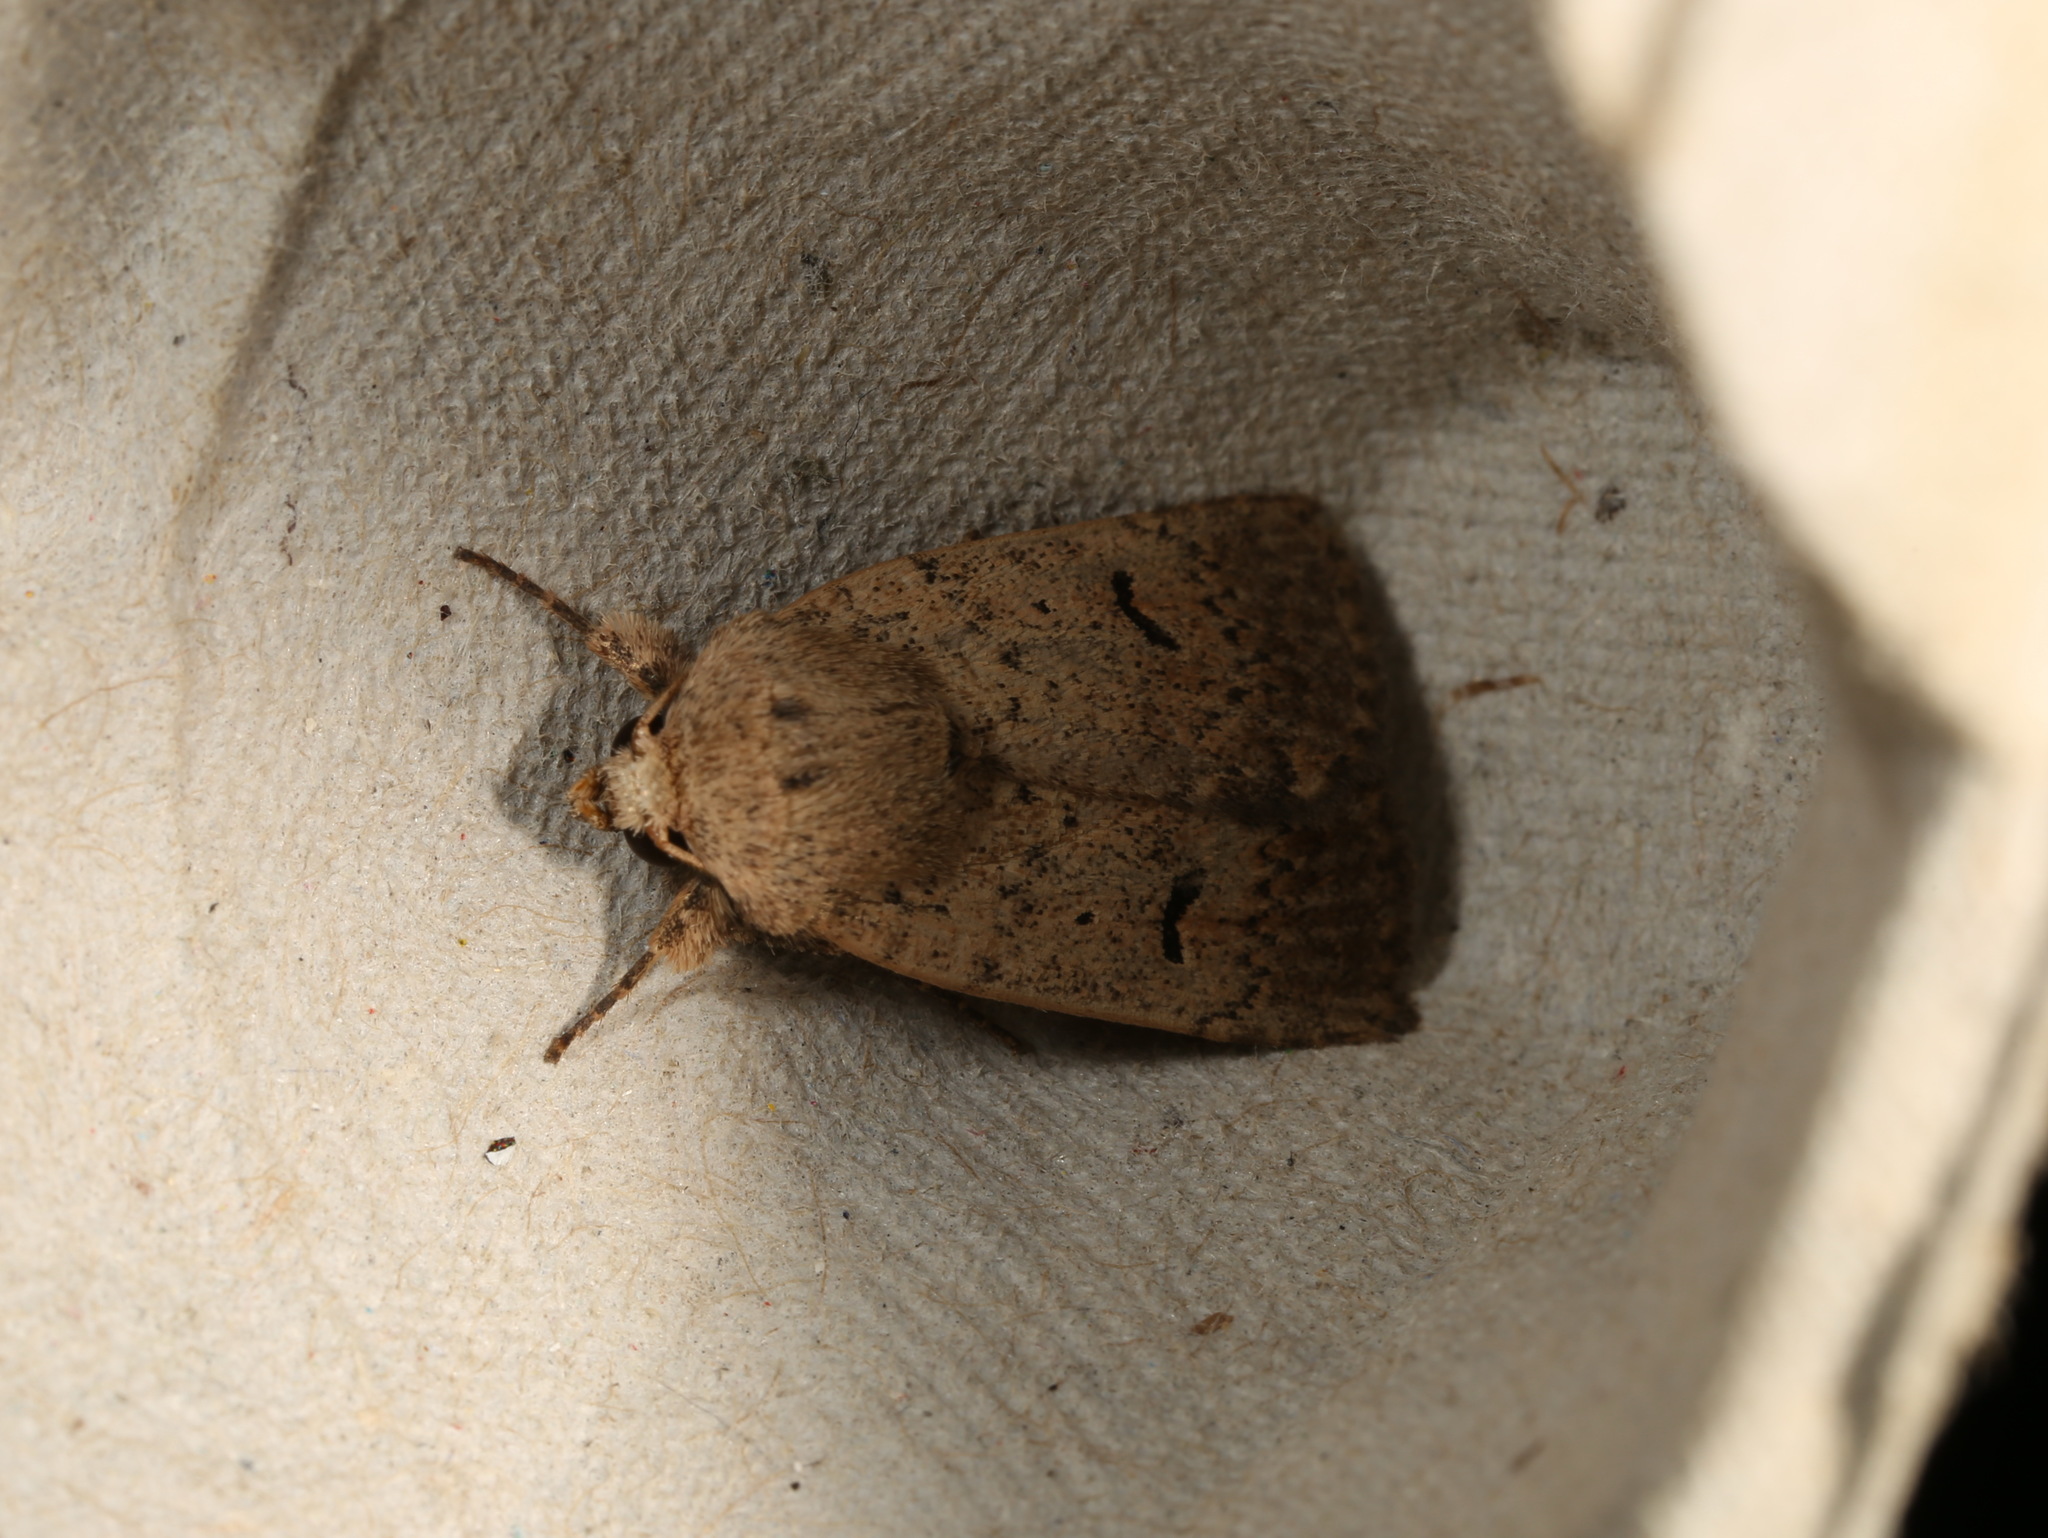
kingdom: Animalia
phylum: Arthropoda
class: Insecta
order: Lepidoptera
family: Noctuidae
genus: Proteuxoa
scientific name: Proteuxoa hypochalchis
